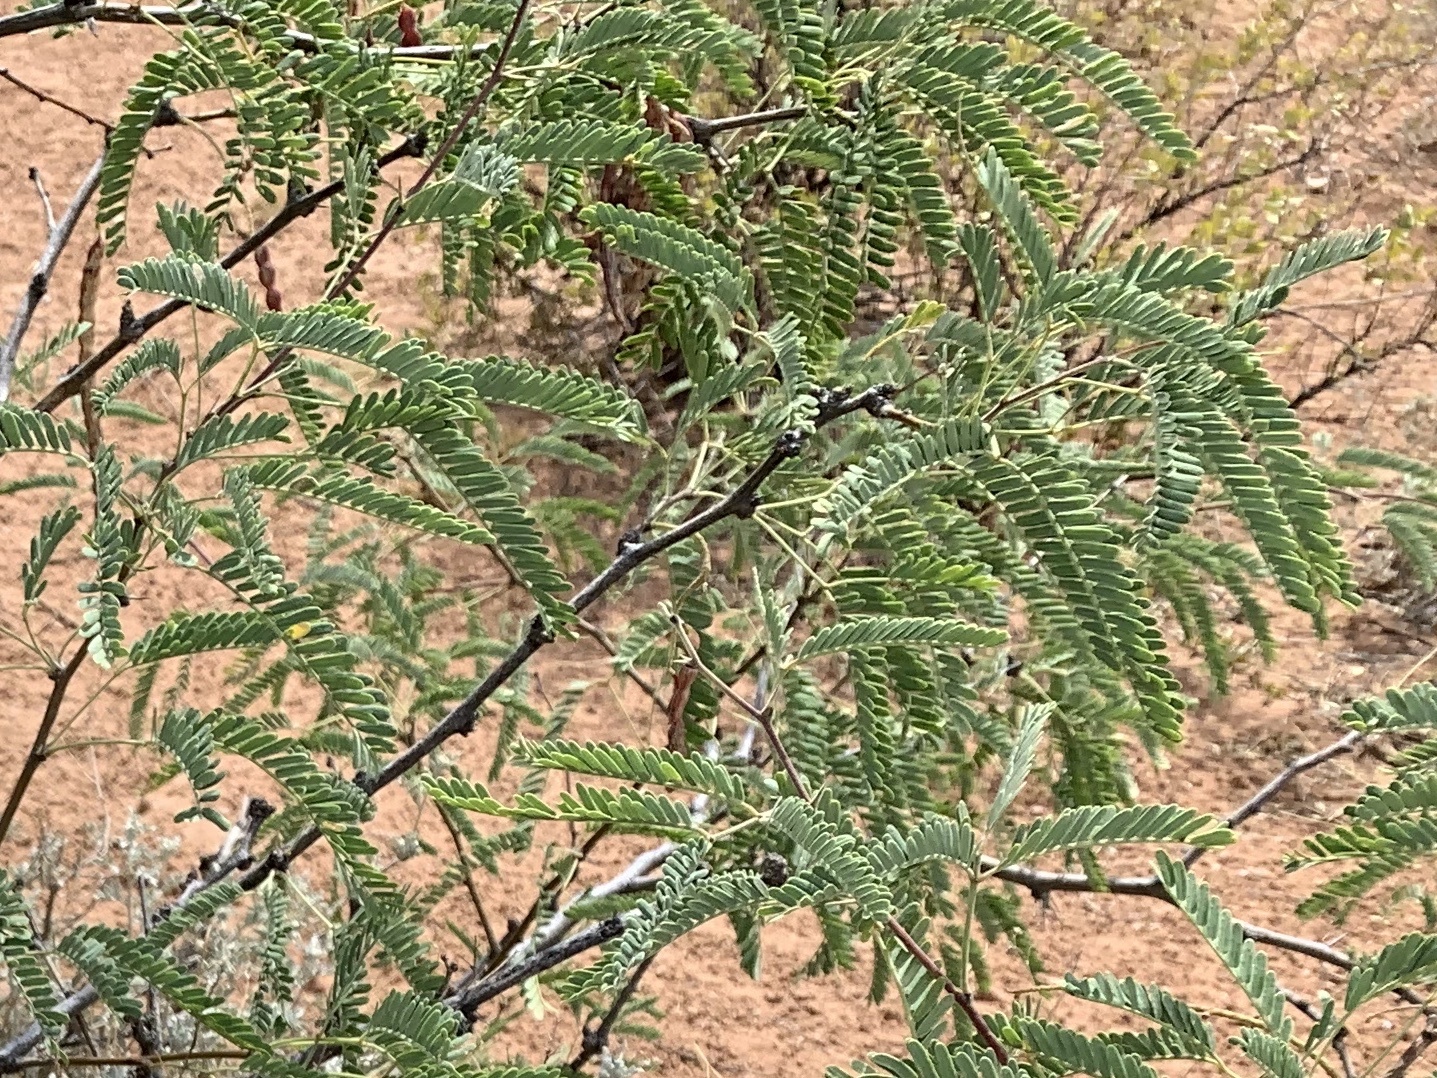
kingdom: Plantae
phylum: Tracheophyta
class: Magnoliopsida
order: Fabales
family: Fabaceae
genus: Prosopis
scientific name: Prosopis velutina
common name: Velvet mesquite
